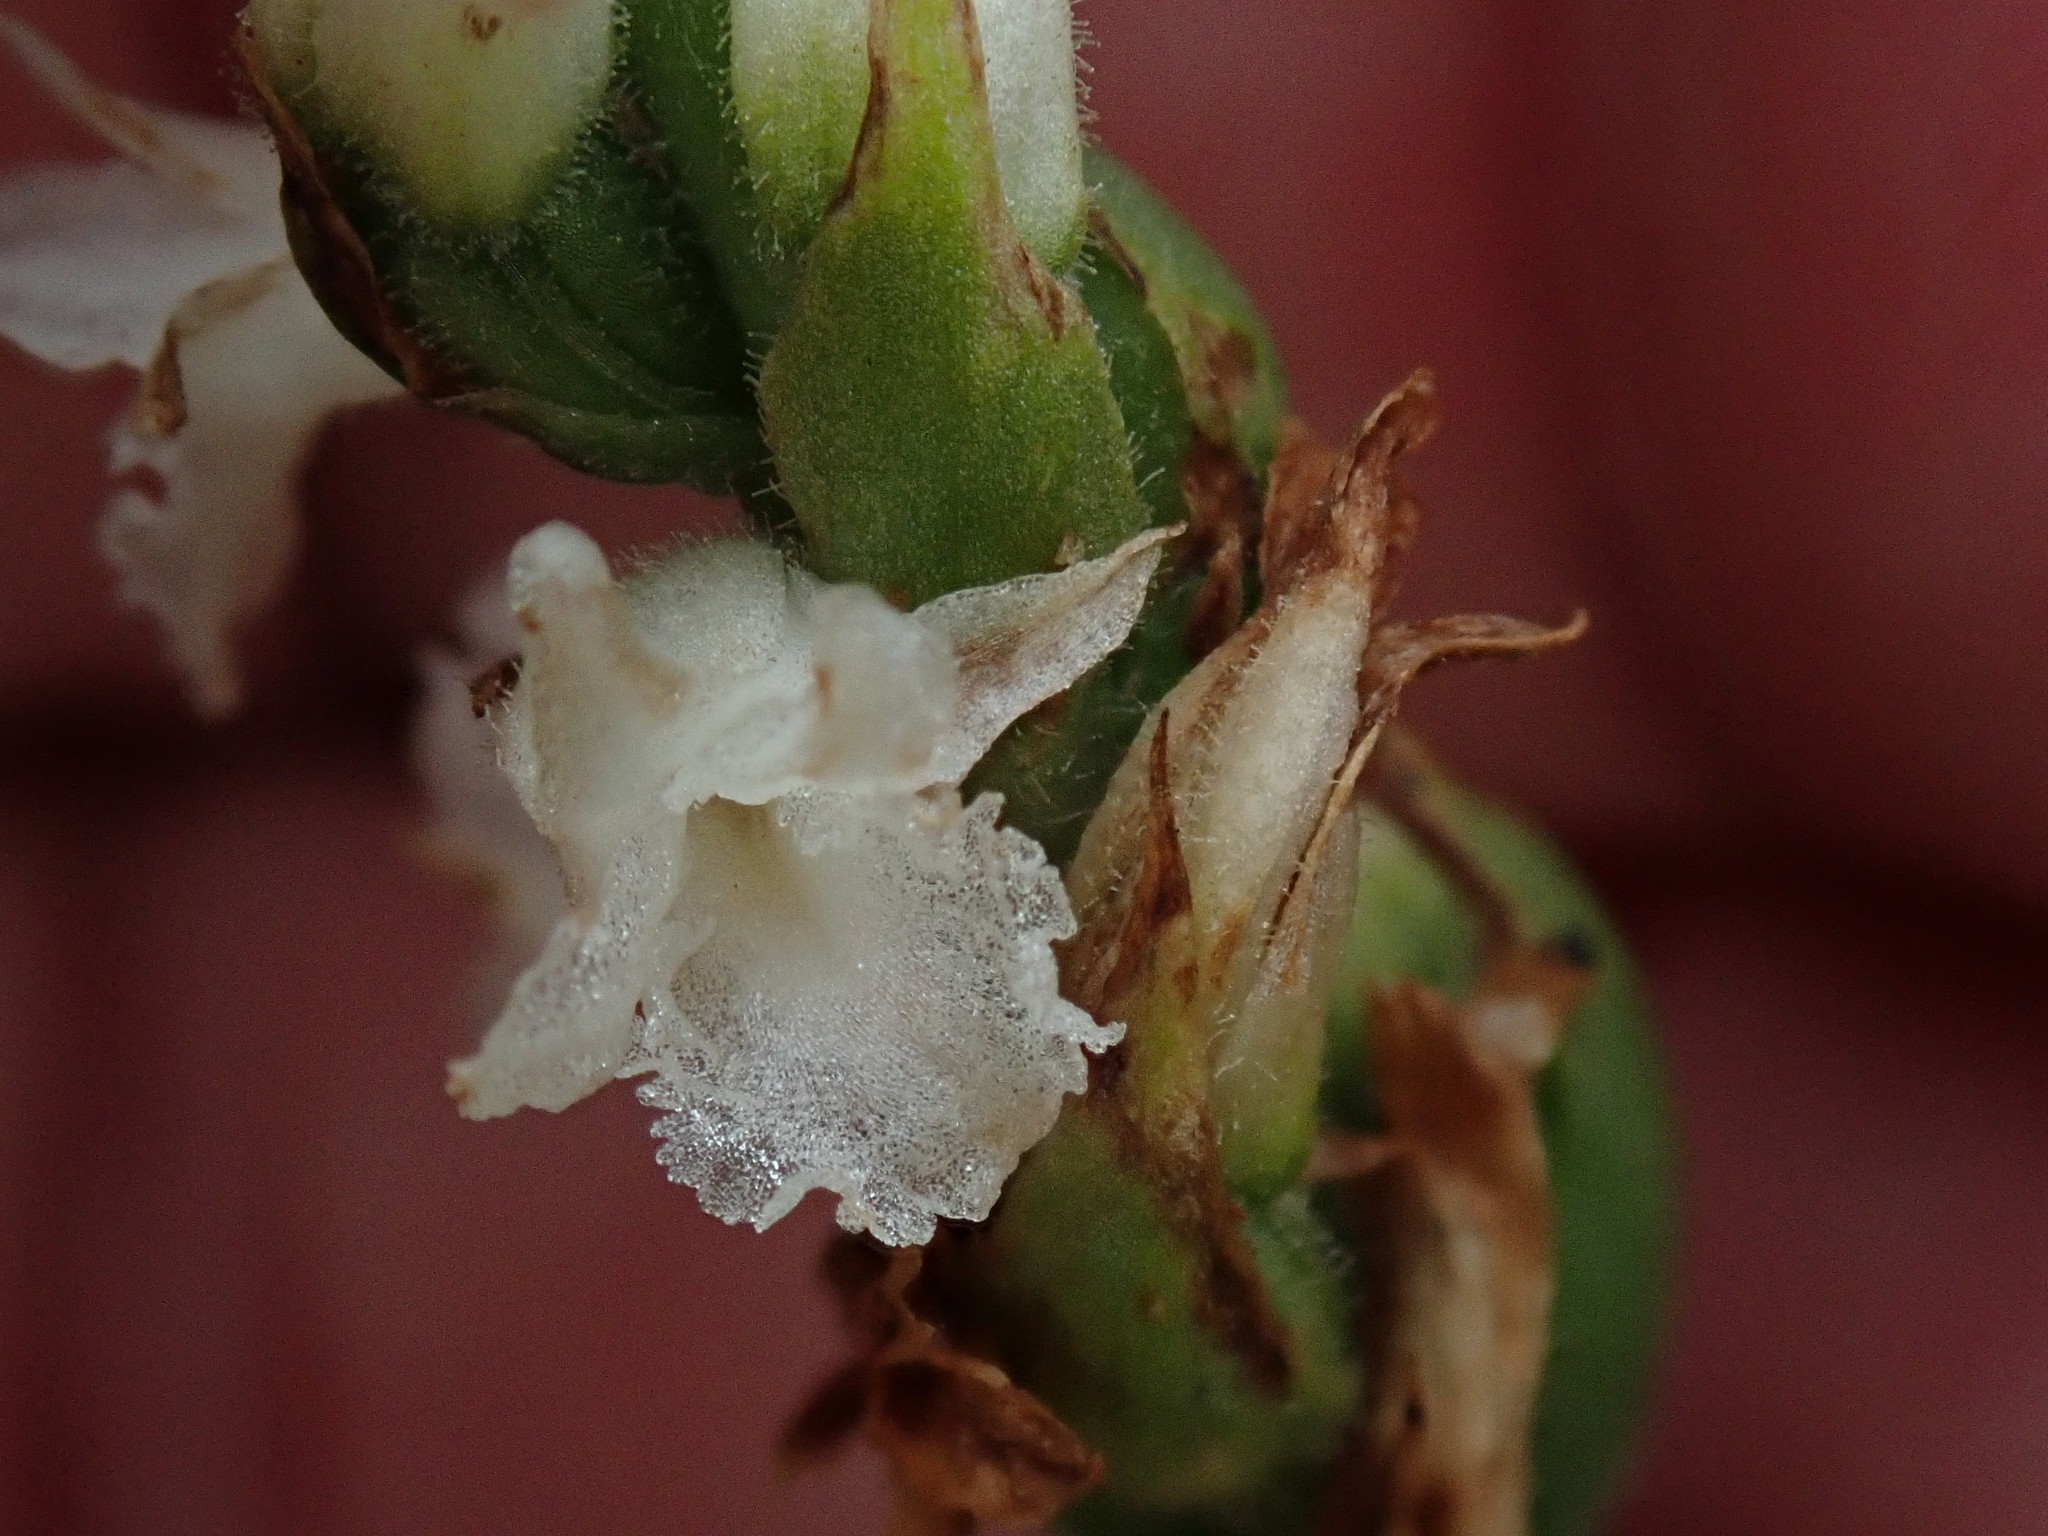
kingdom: Plantae
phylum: Tracheophyta
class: Liliopsida
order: Asparagales
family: Orchidaceae
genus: Spiranthes
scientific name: Spiranthes
